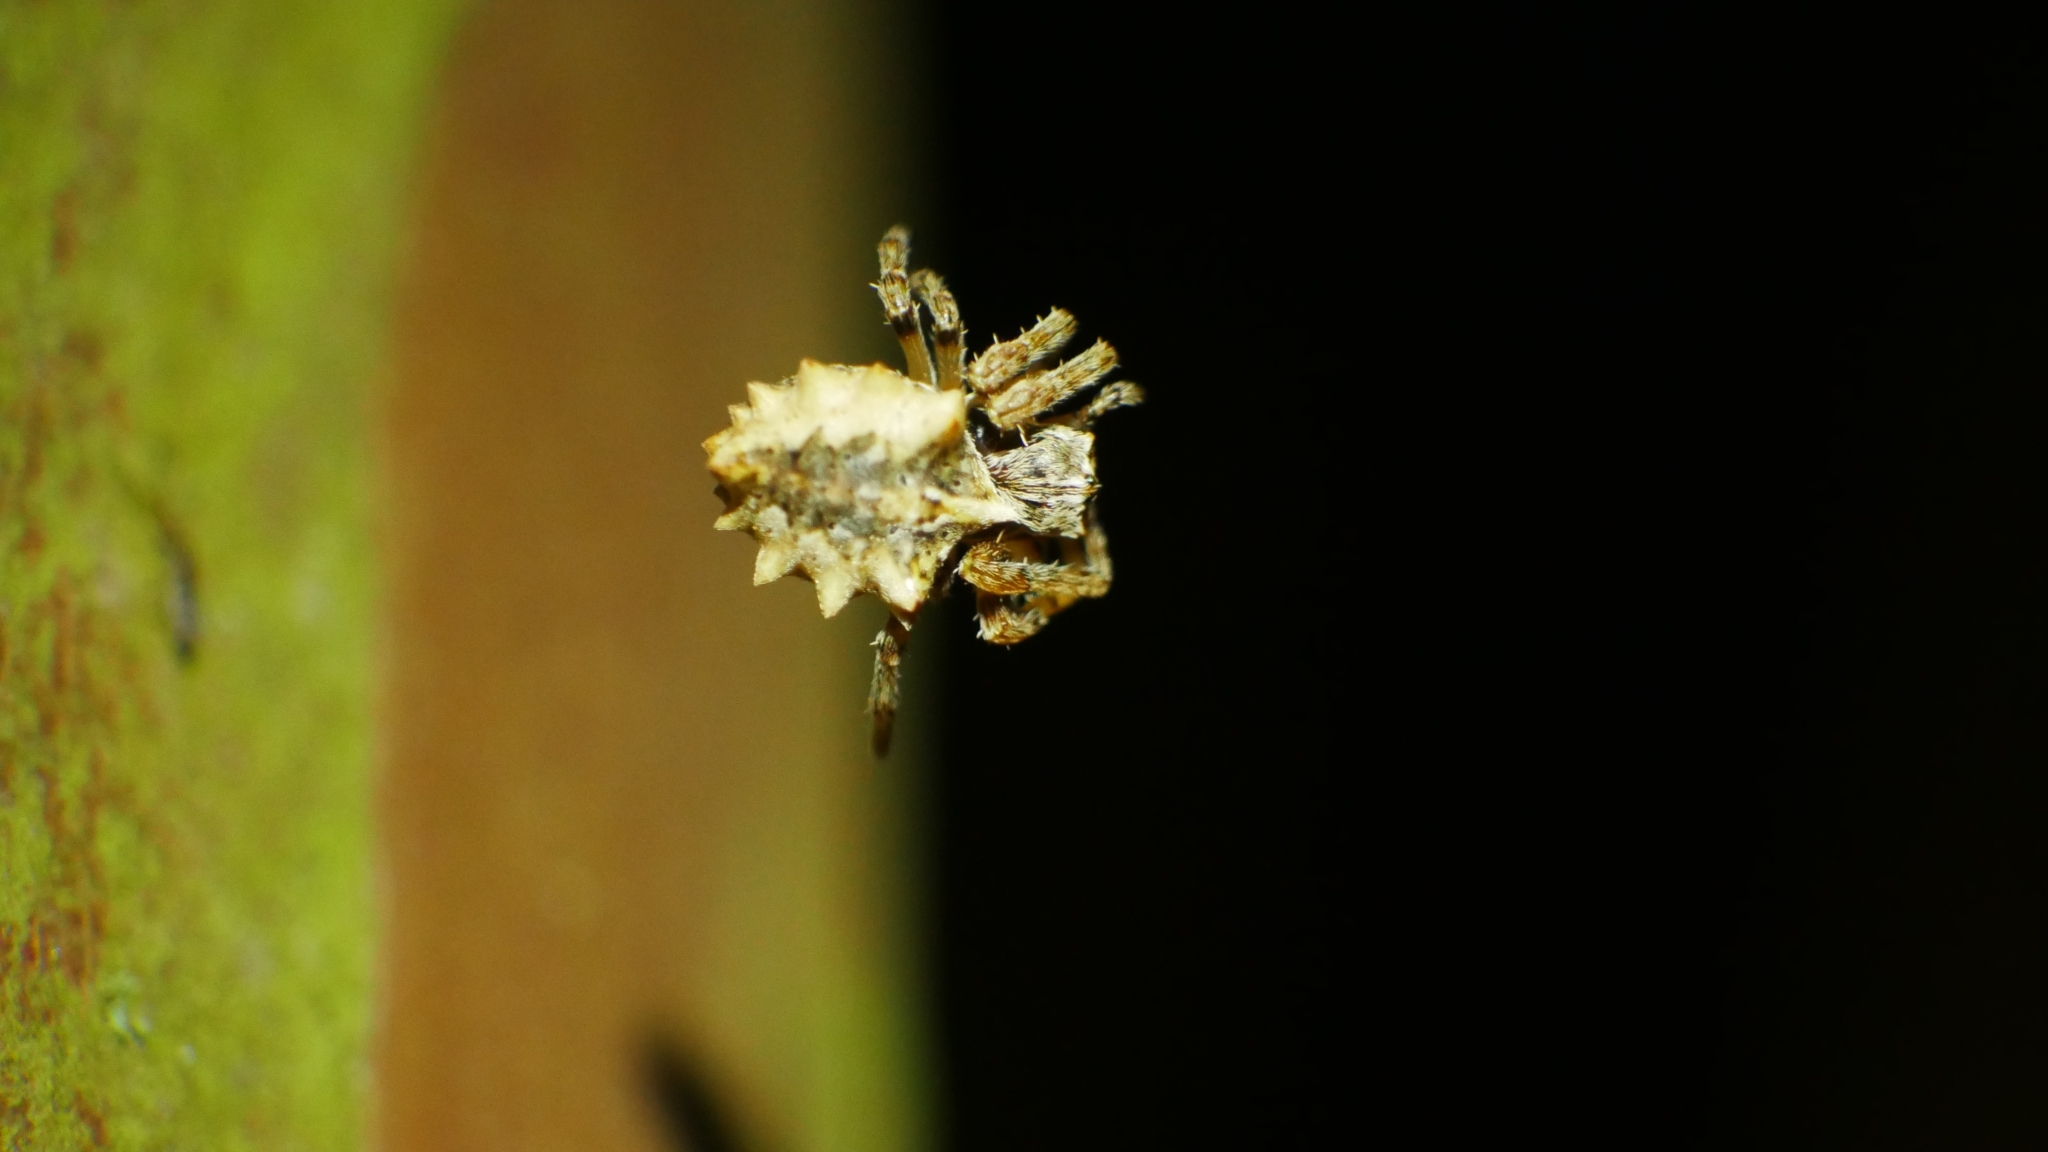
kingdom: Animalia
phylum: Arthropoda
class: Arachnida
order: Araneae
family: Araneidae
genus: Acanthepeira
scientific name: Acanthepeira stellata
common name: Starbellied orbweaver
